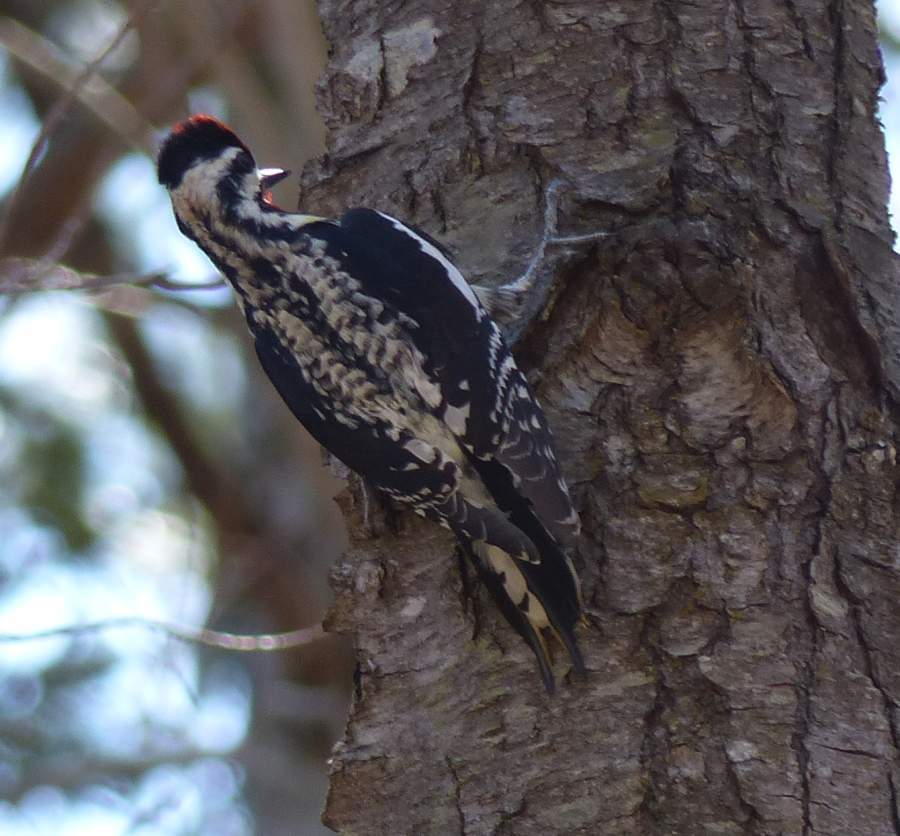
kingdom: Animalia
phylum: Chordata
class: Aves
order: Piciformes
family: Picidae
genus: Sphyrapicus
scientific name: Sphyrapicus varius
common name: Yellow-bellied sapsucker
